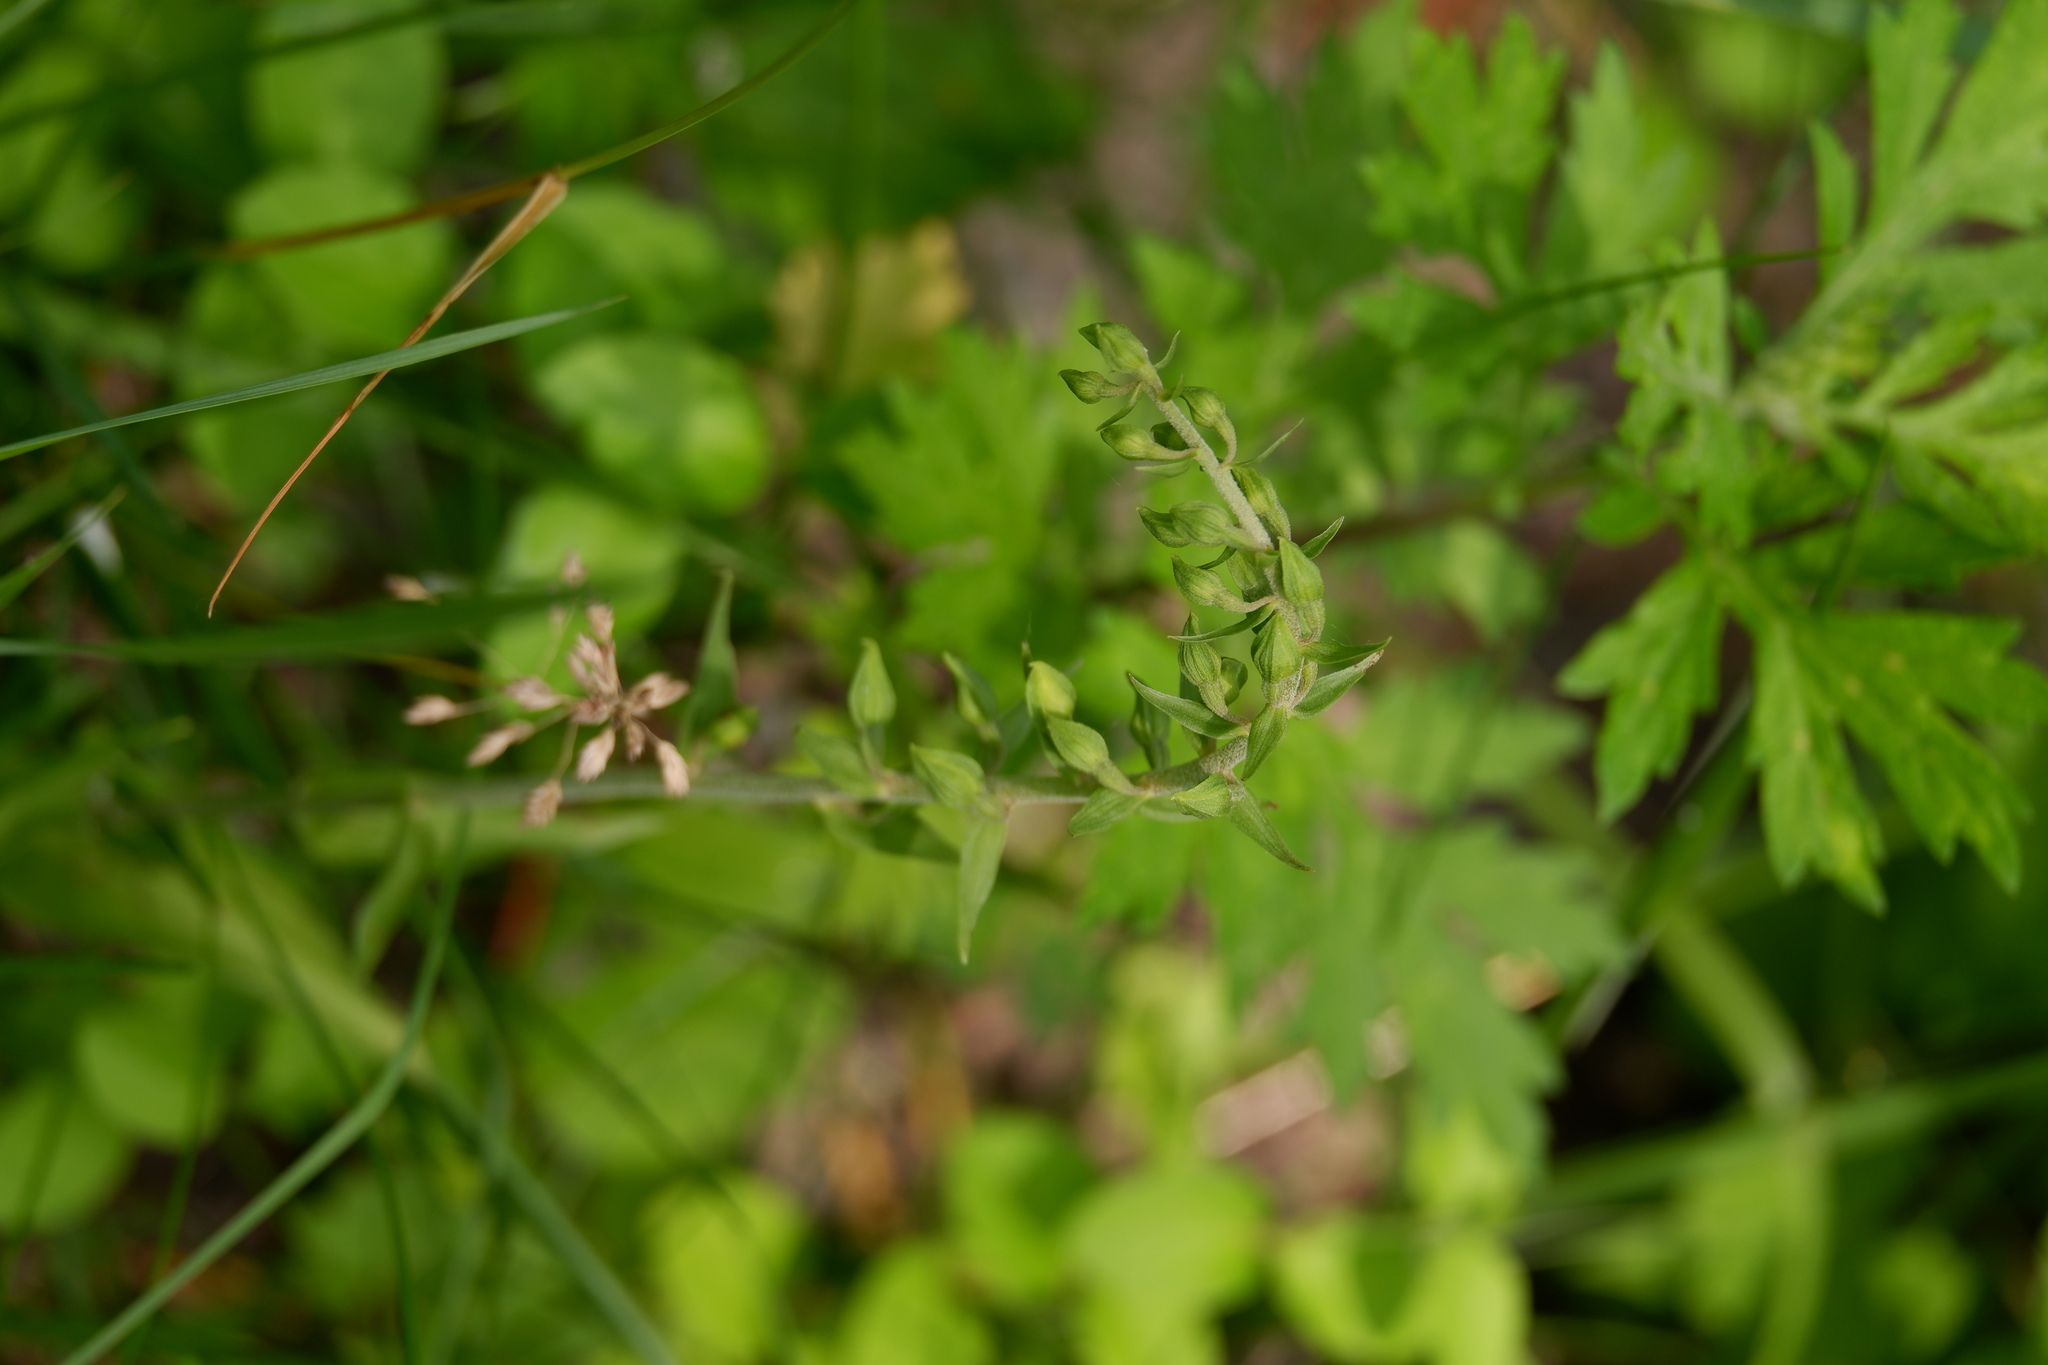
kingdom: Plantae
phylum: Tracheophyta
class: Liliopsida
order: Asparagales
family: Orchidaceae
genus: Epipactis
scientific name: Epipactis helleborine
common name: Broad-leaved helleborine
